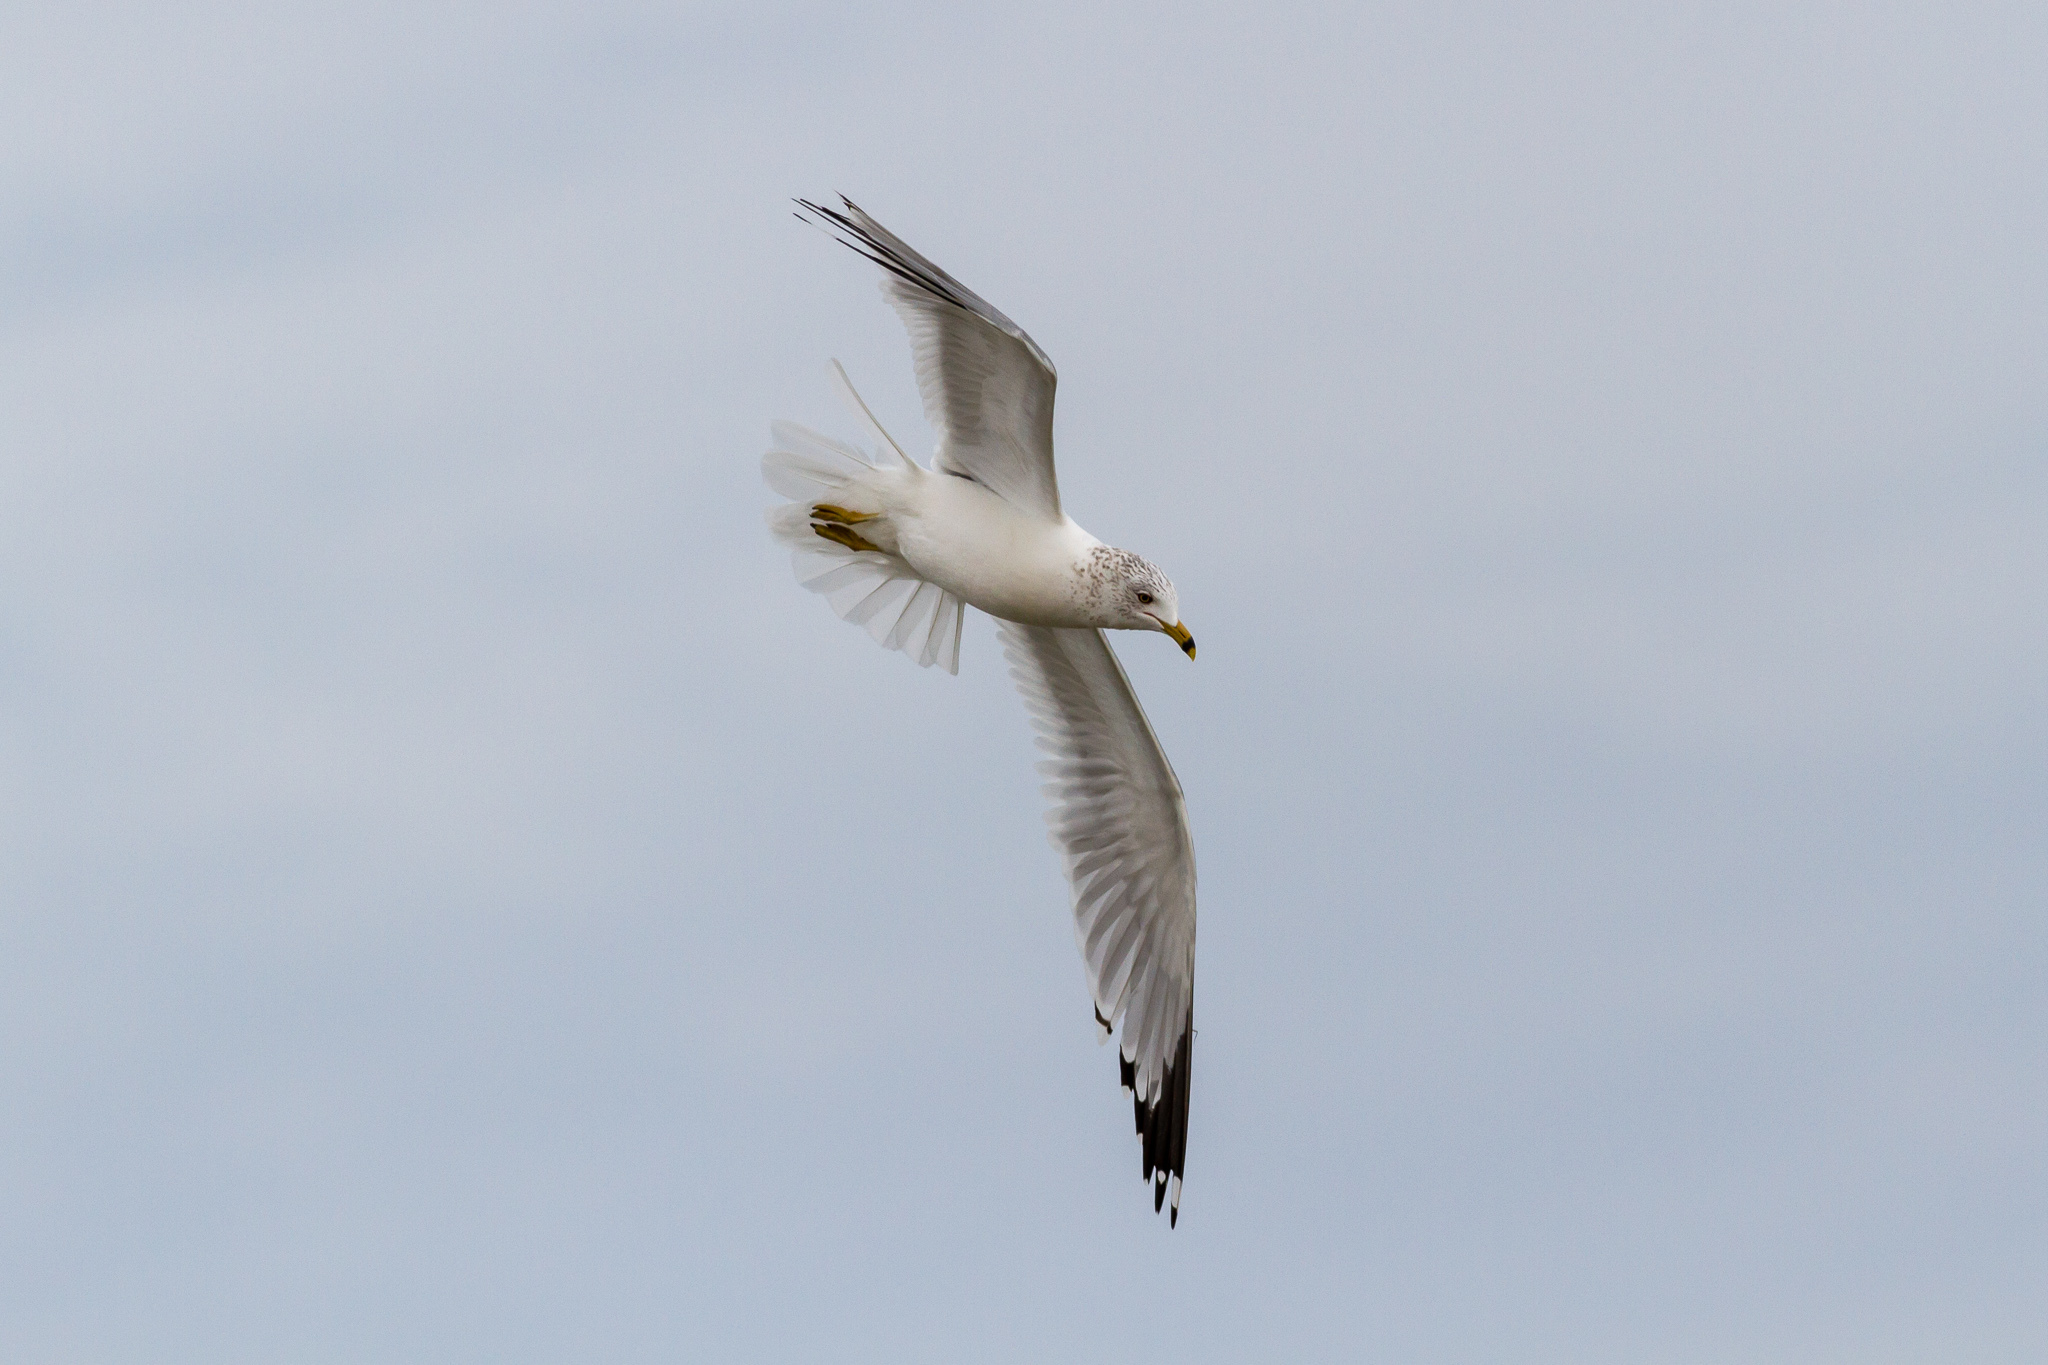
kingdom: Animalia
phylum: Chordata
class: Aves
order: Charadriiformes
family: Laridae
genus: Larus
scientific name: Larus delawarensis
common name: Ring-billed gull
